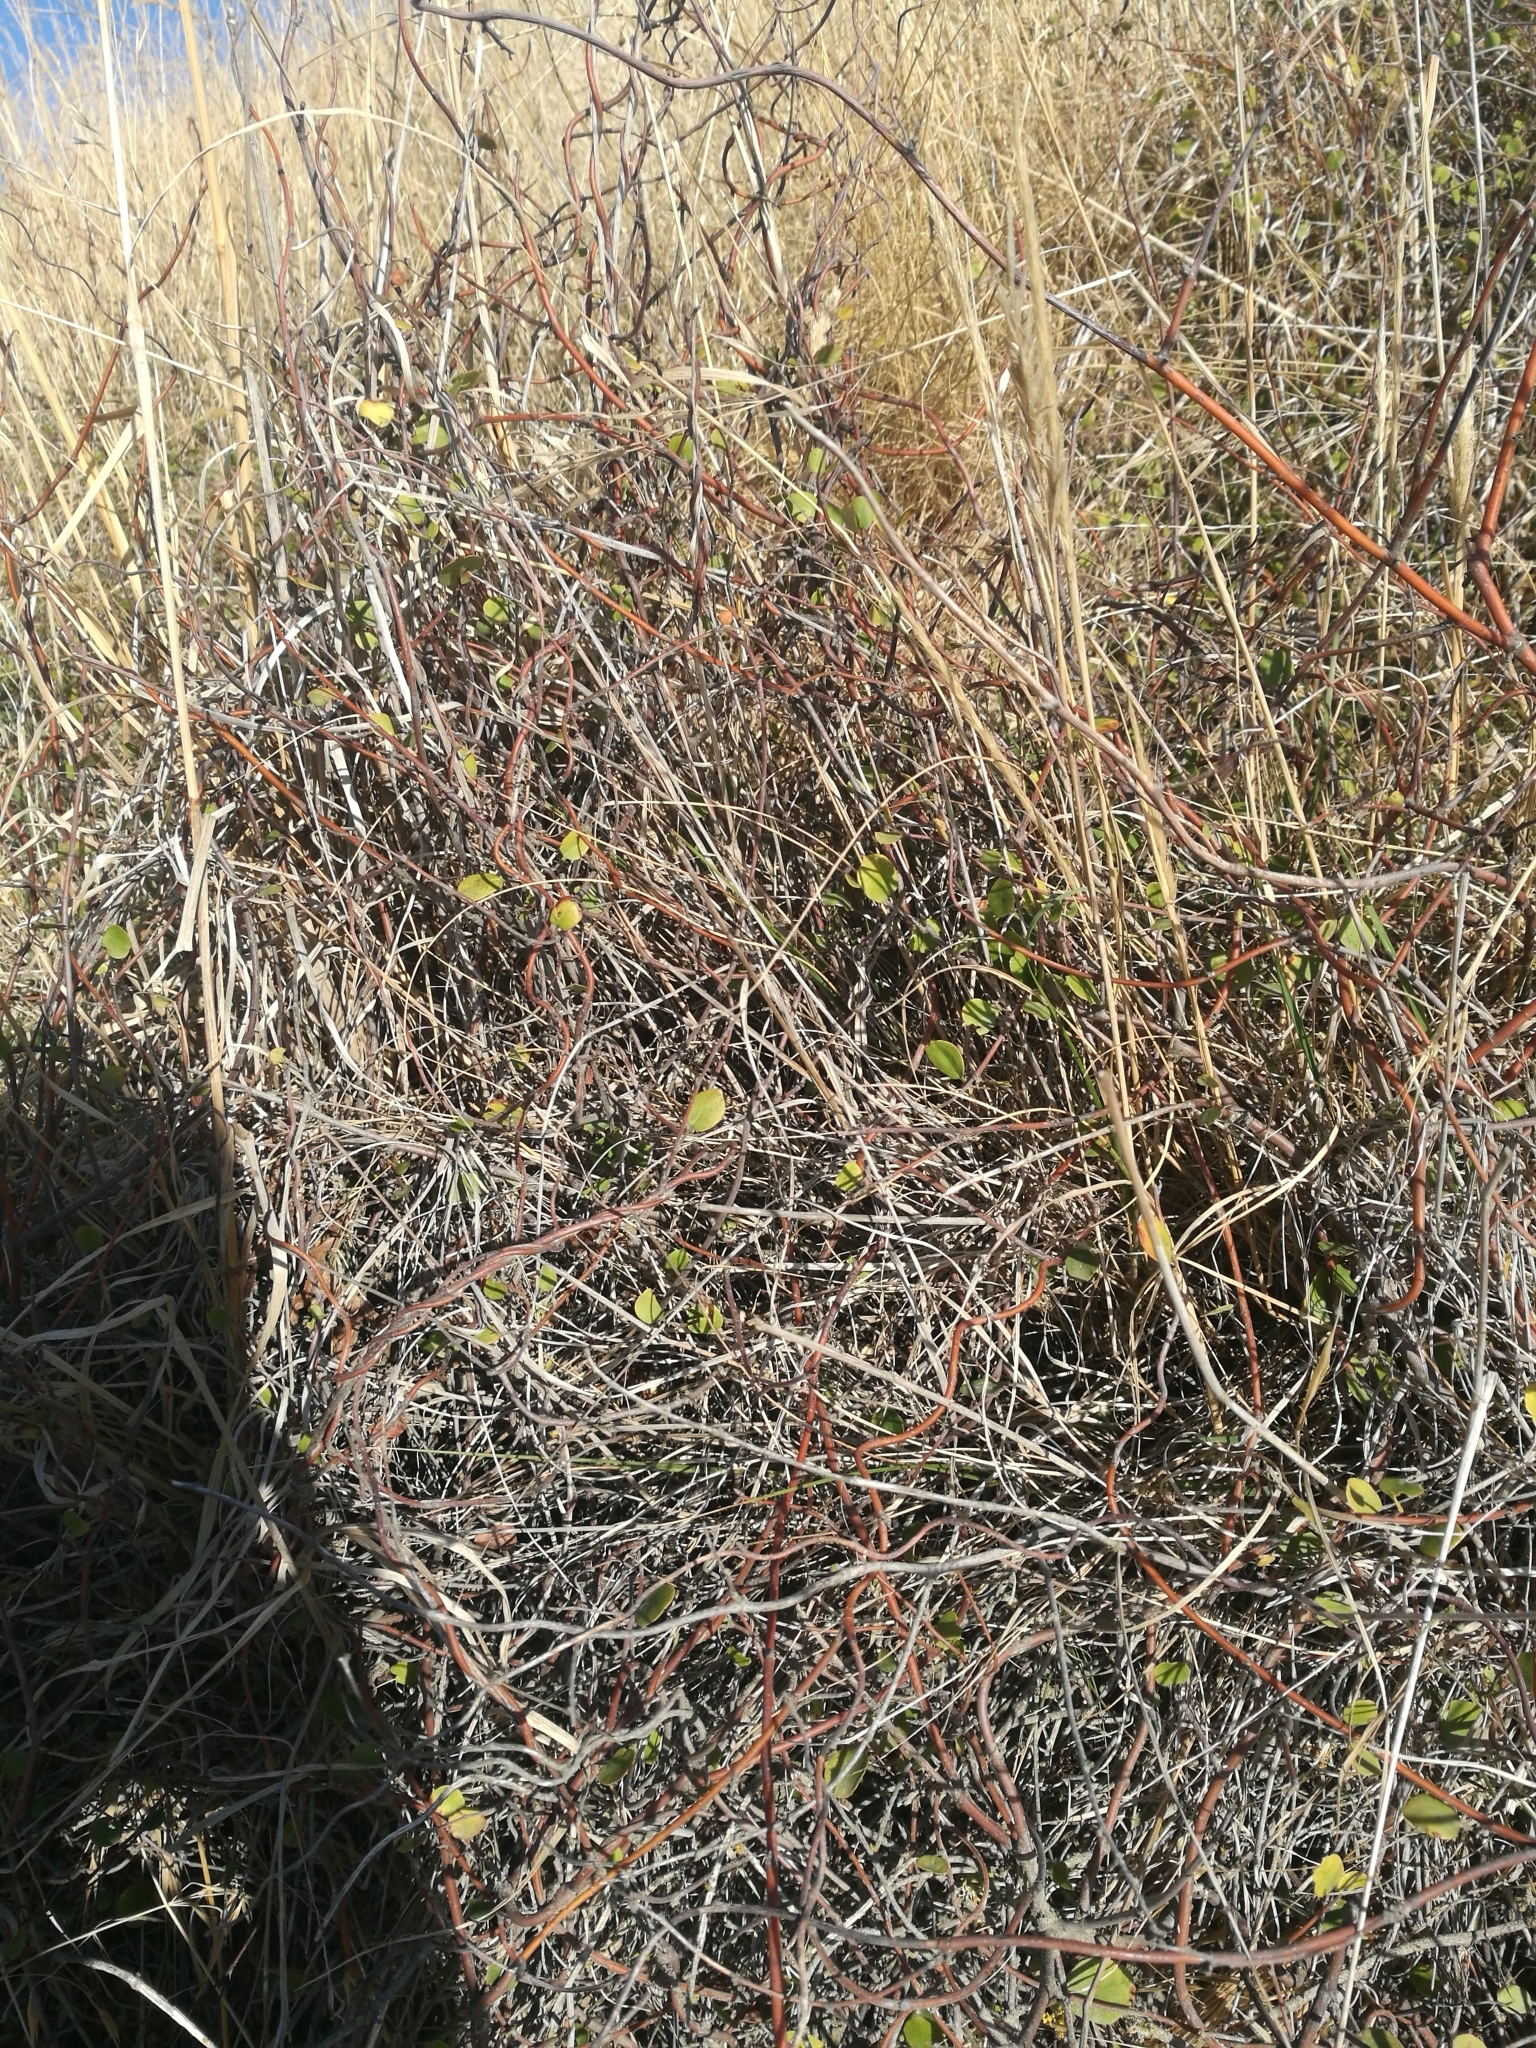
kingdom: Plantae
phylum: Tracheophyta
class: Magnoliopsida
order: Caryophyllales
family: Polygonaceae
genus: Muehlenbeckia
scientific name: Muehlenbeckia complexa
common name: Wireplant
